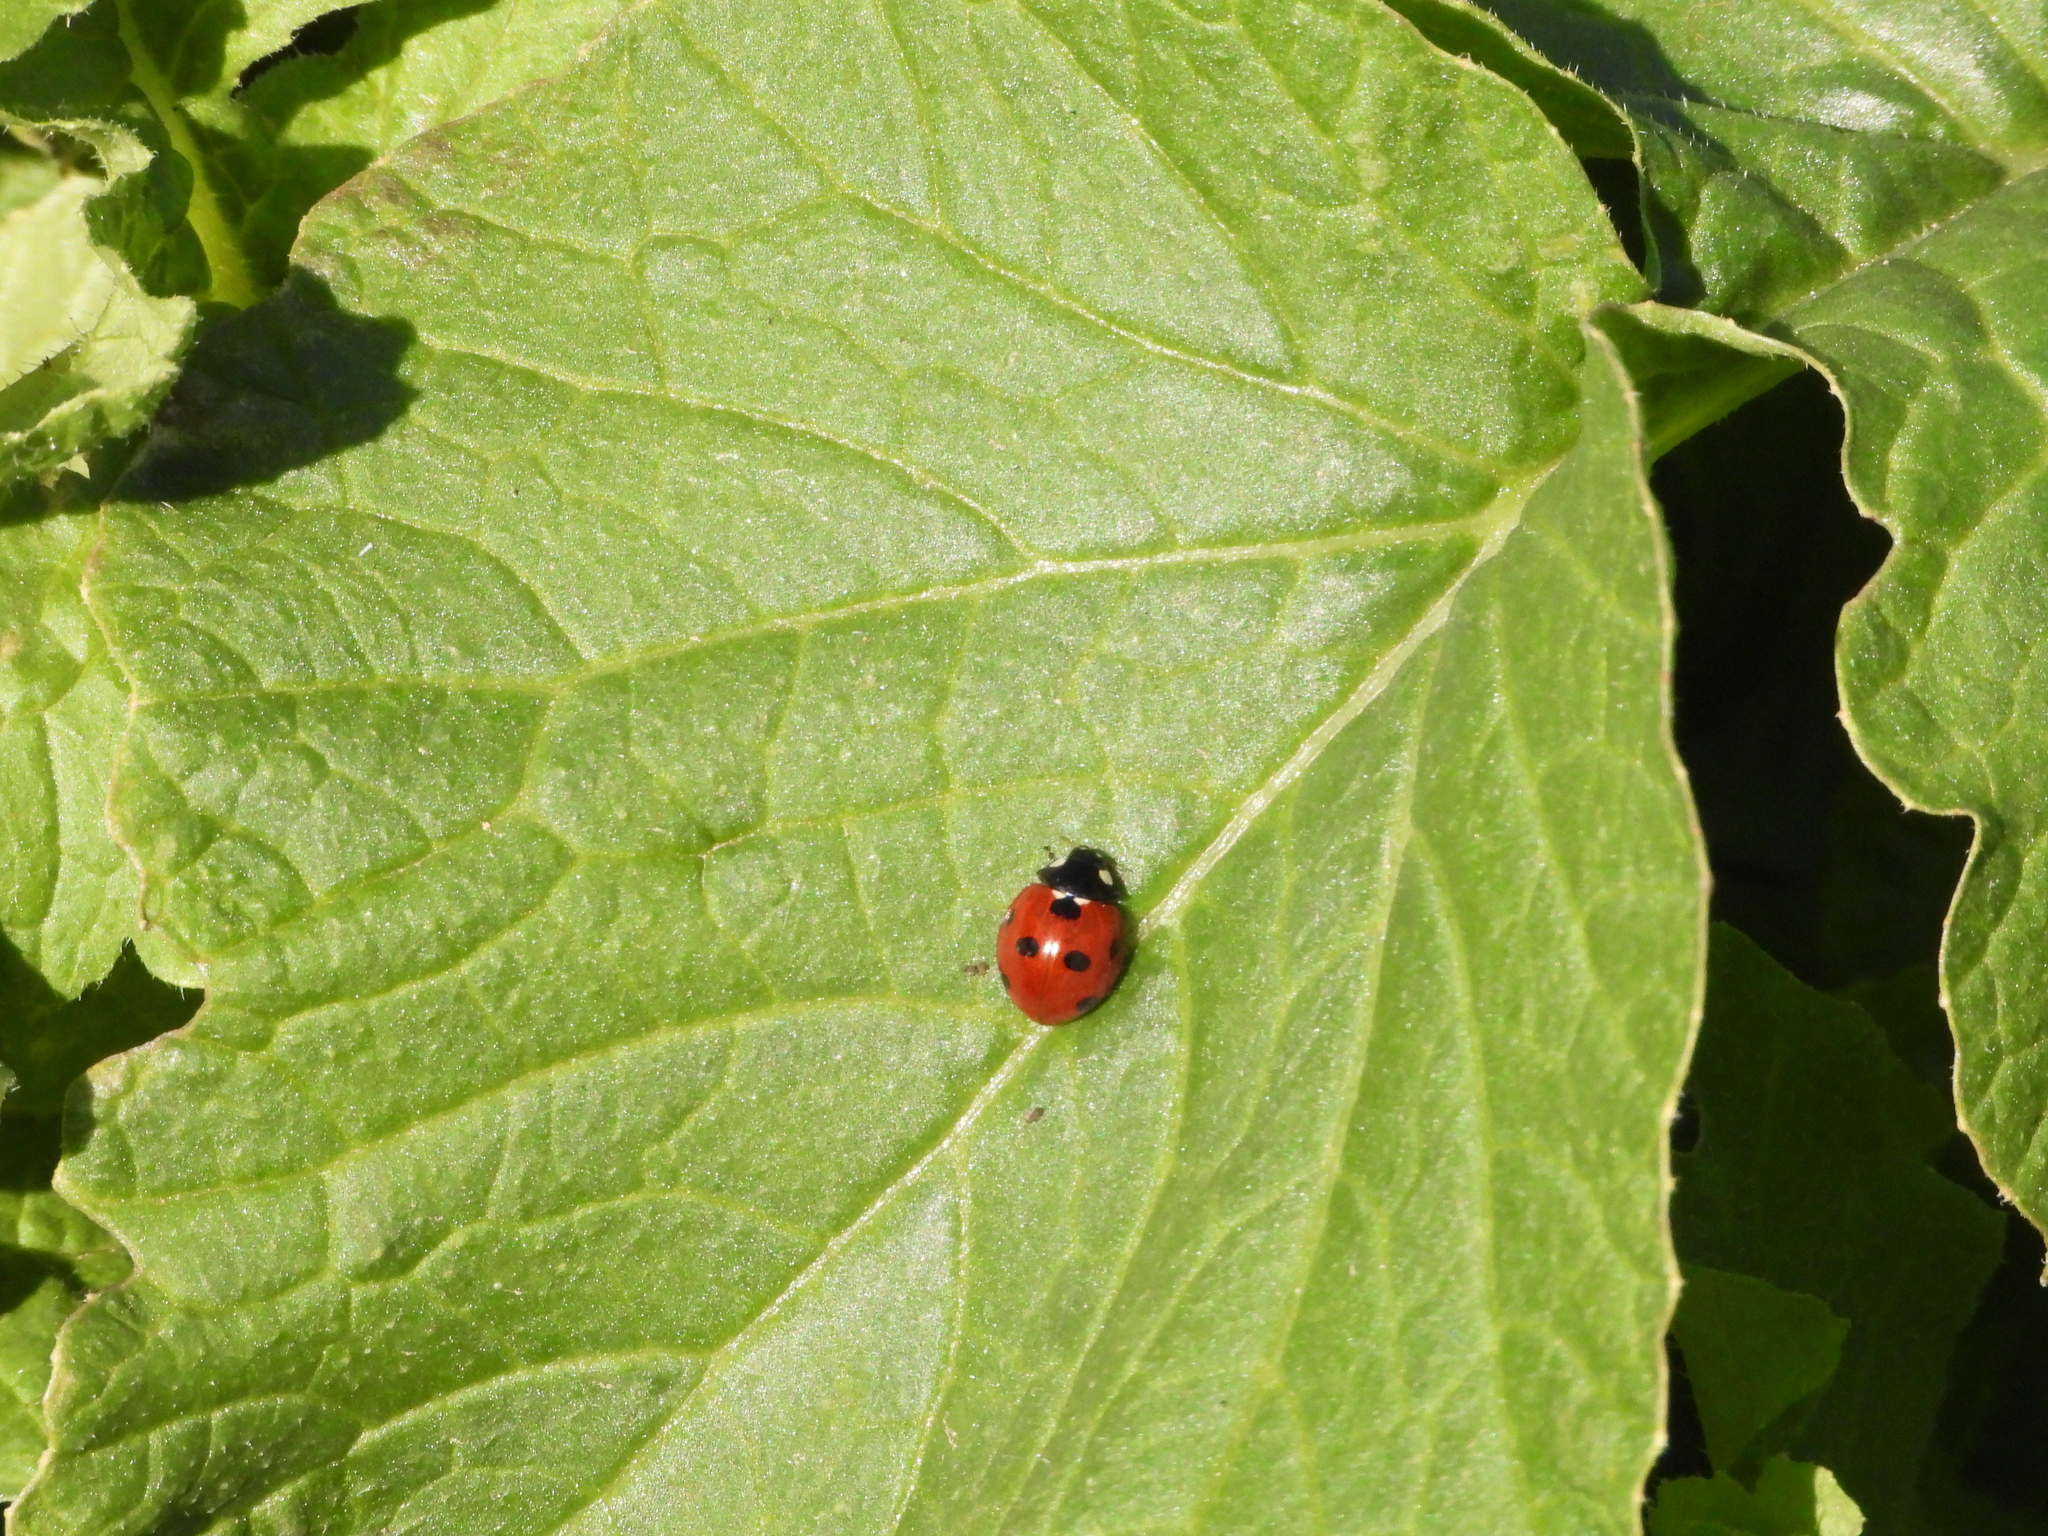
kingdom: Animalia
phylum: Arthropoda
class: Insecta
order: Coleoptera
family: Coccinellidae
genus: Coccinella
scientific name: Coccinella septempunctata
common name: Sevenspotted lady beetle
